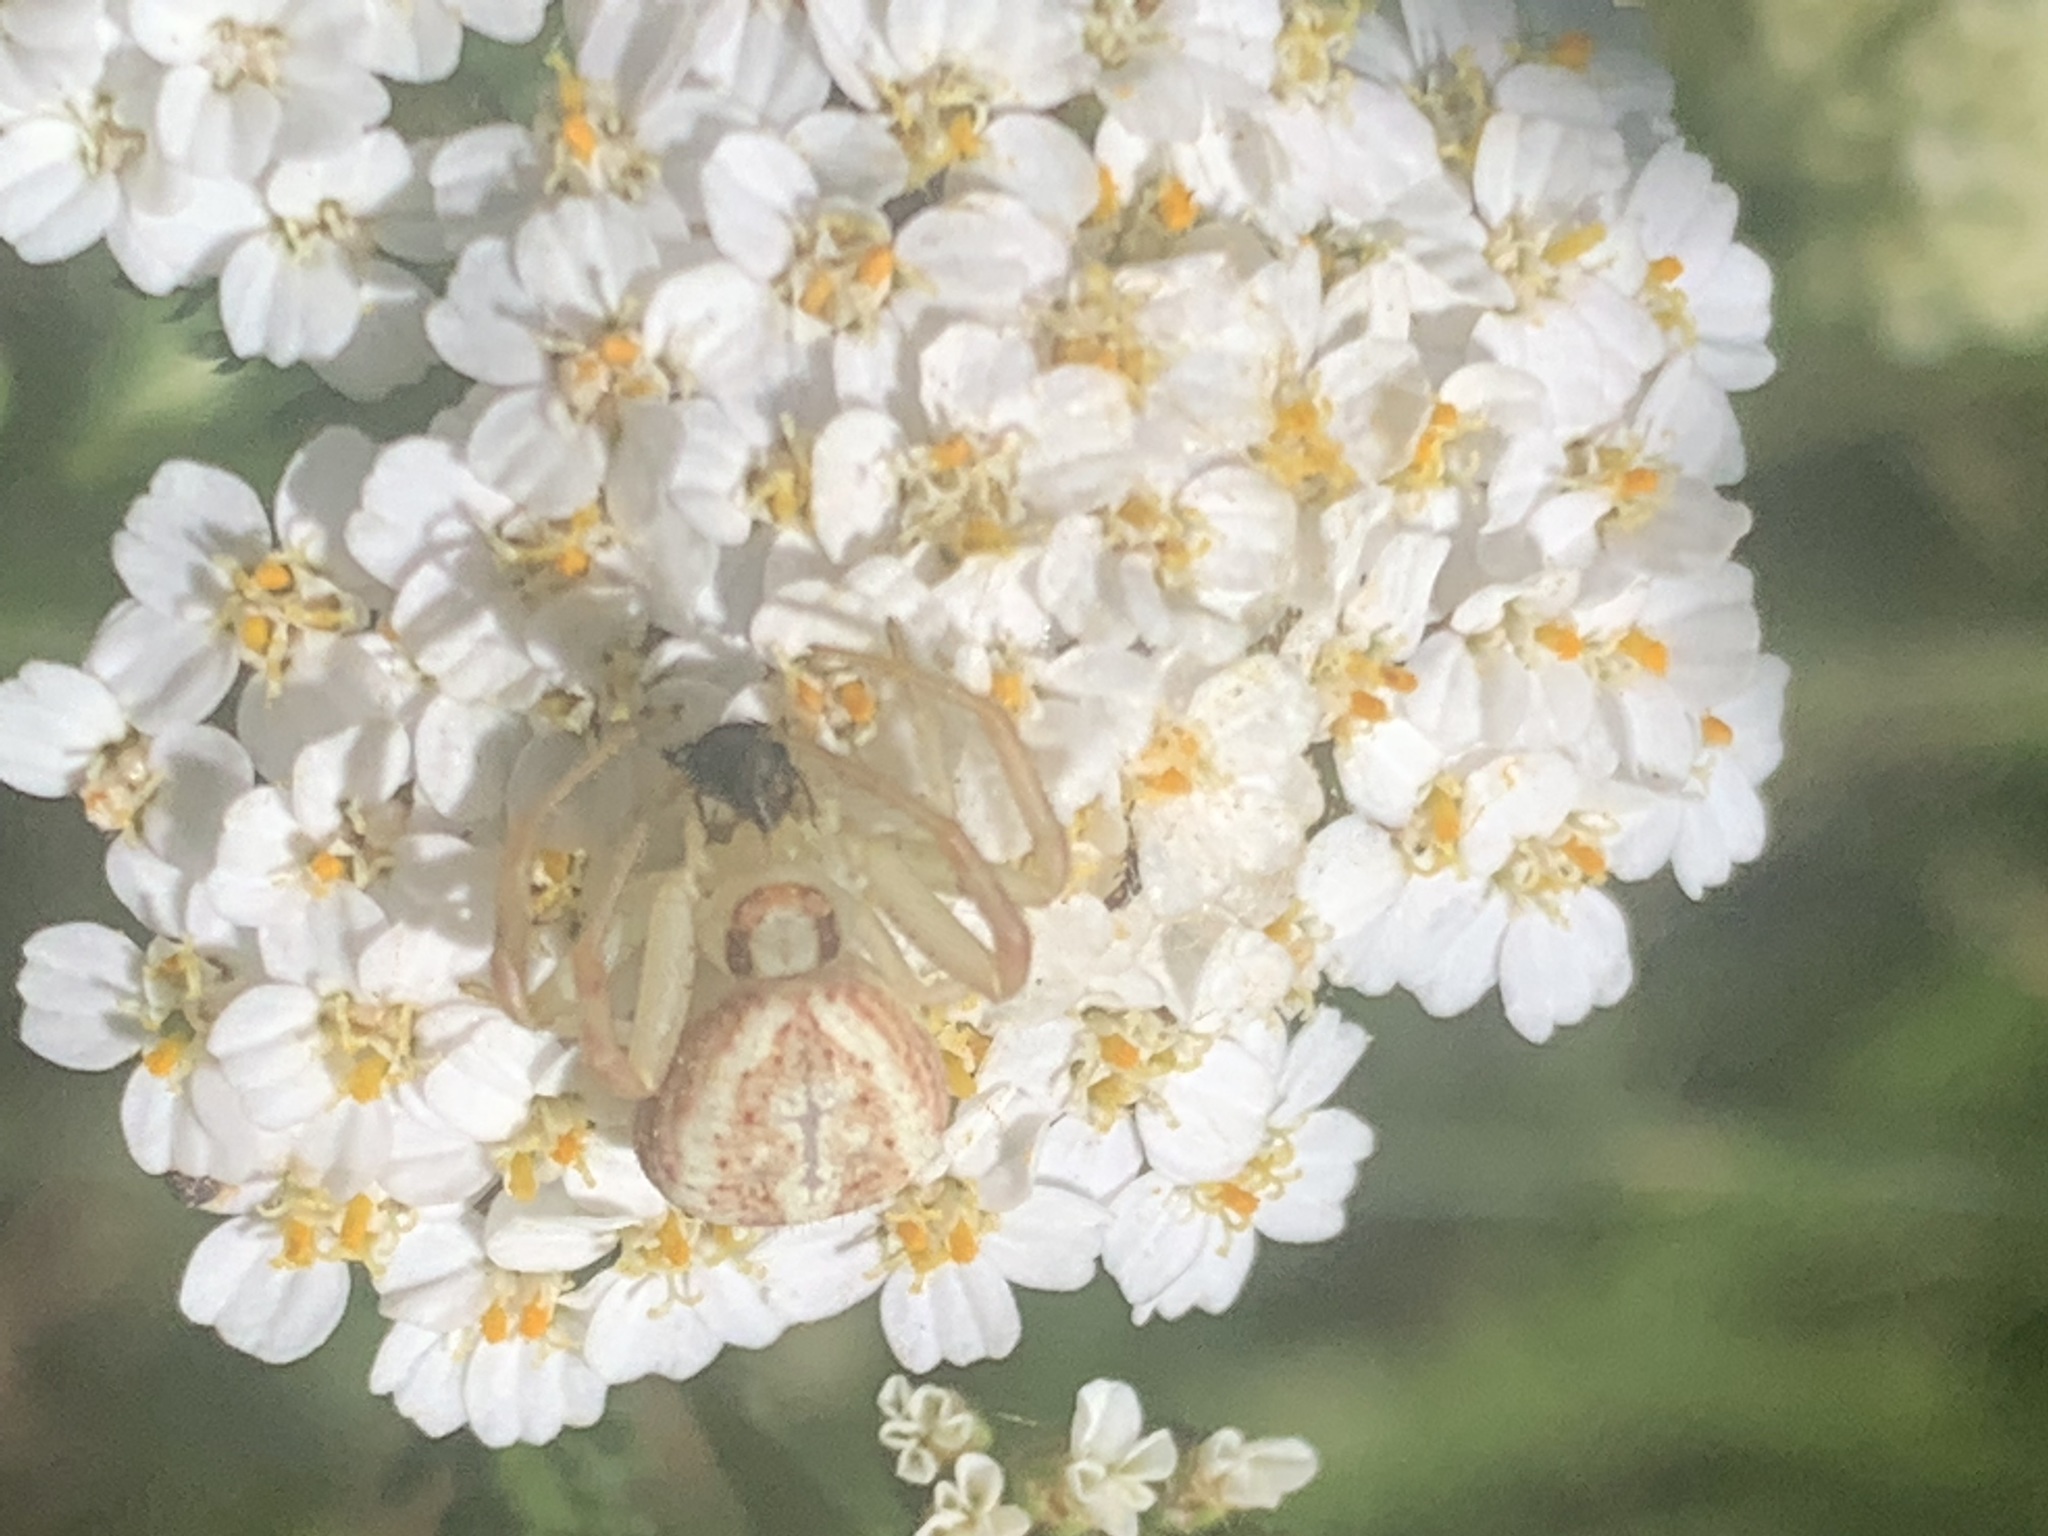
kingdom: Animalia
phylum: Arthropoda
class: Arachnida
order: Araneae
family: Thomisidae
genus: Misumenops
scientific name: Misumenops
